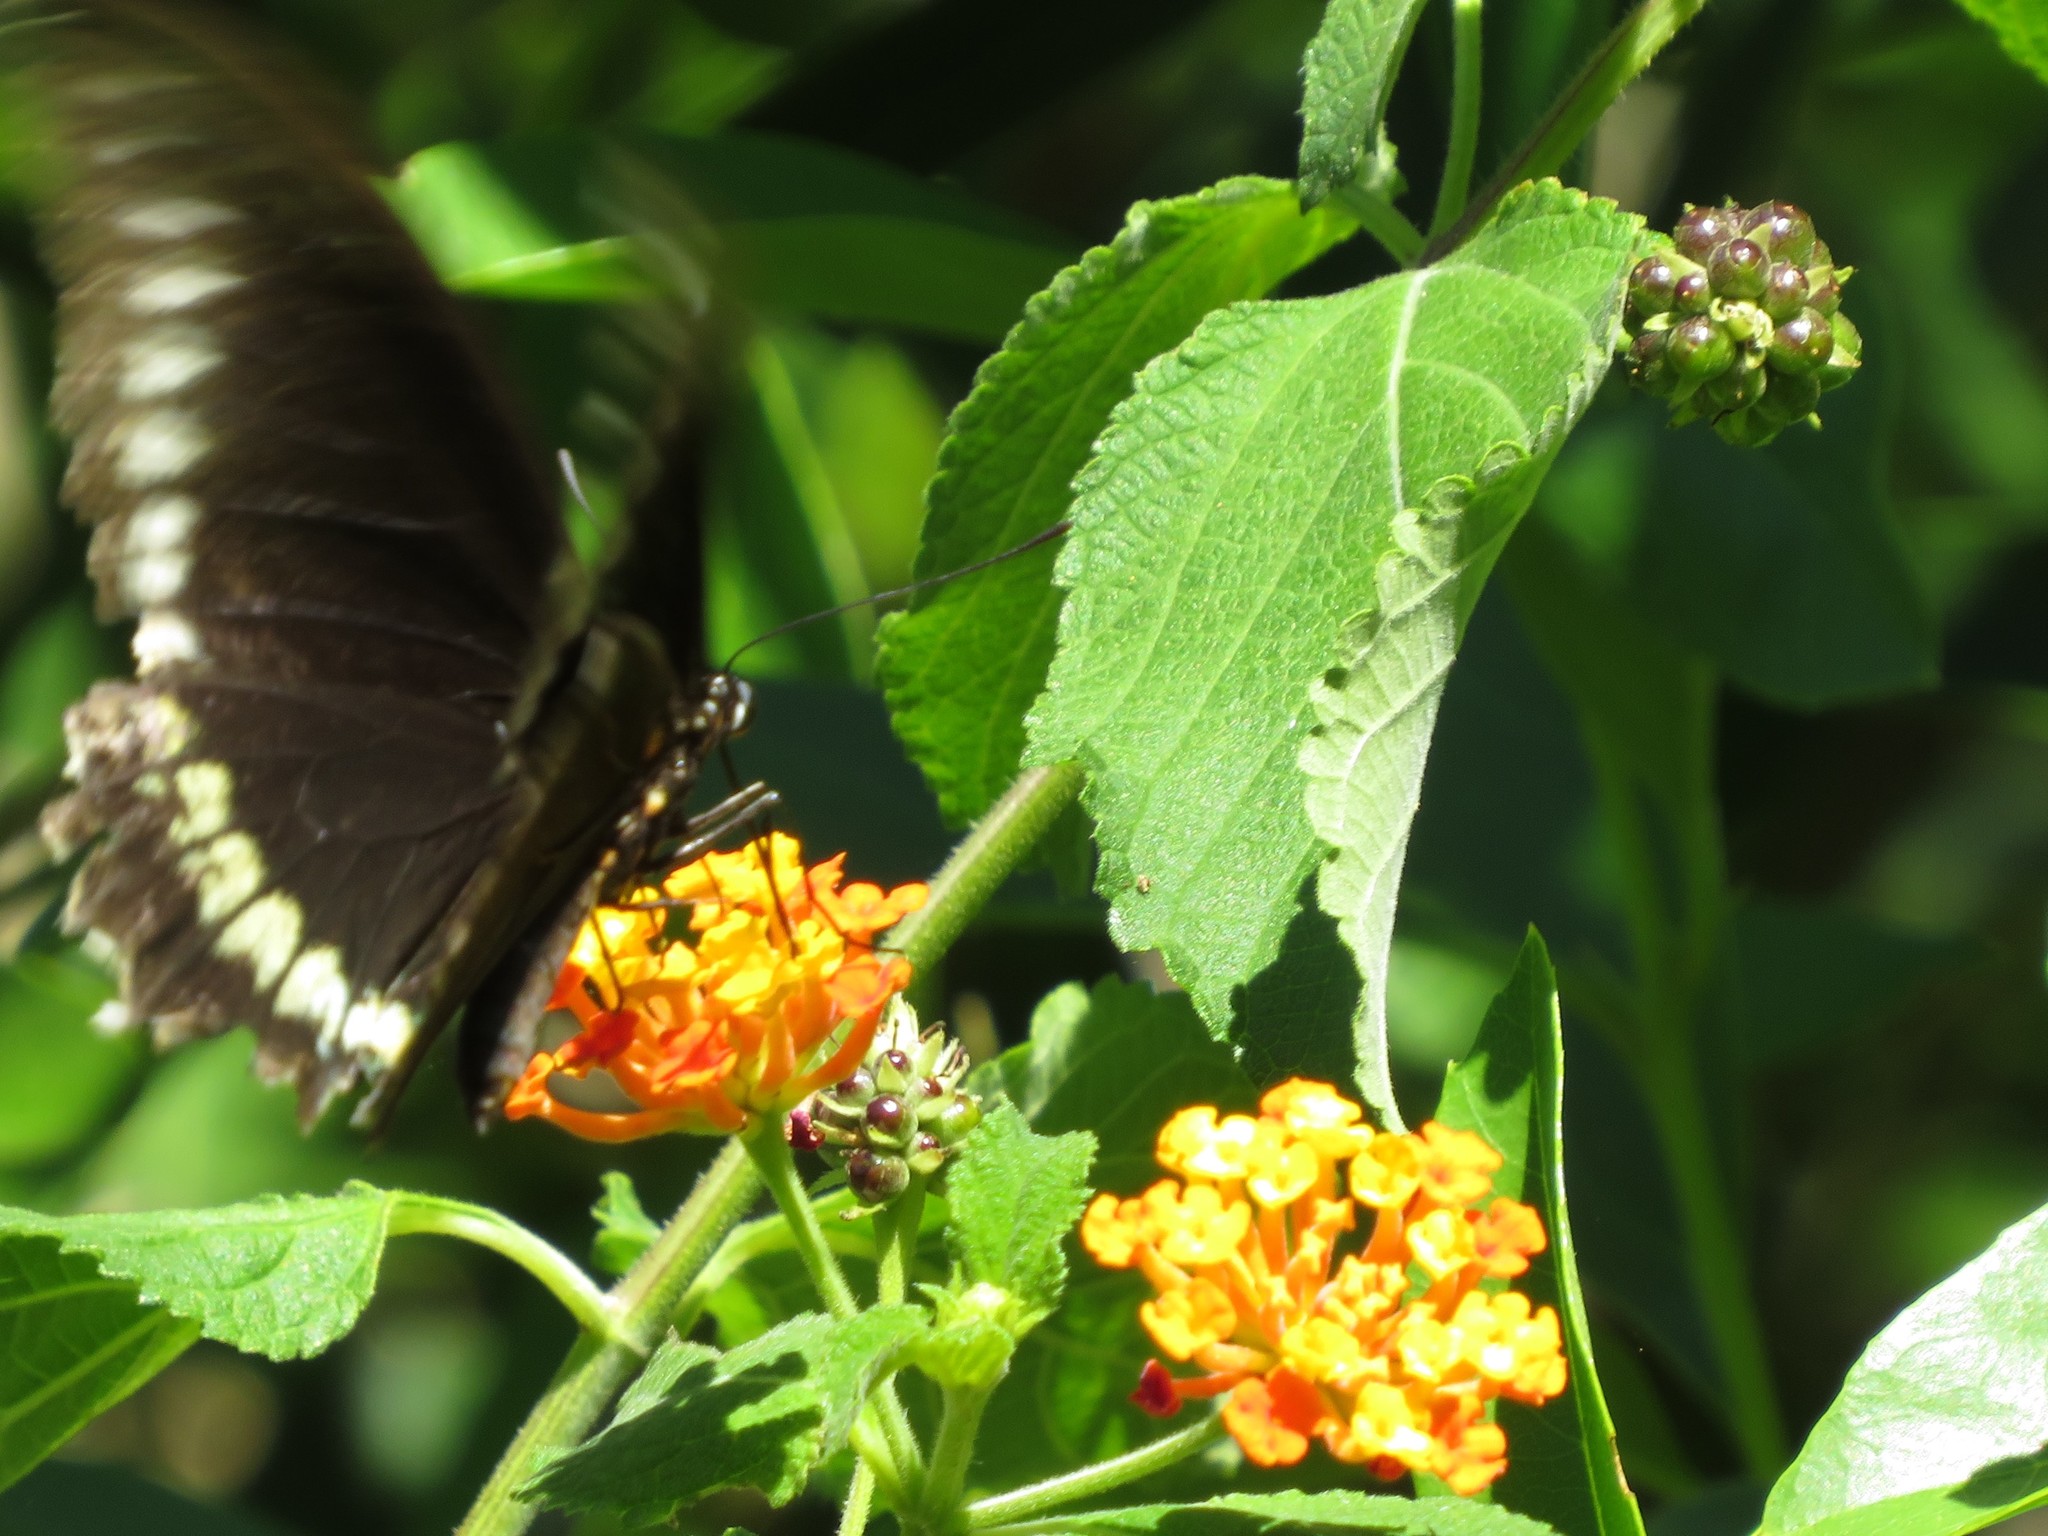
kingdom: Animalia
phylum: Arthropoda
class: Insecta
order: Lepidoptera
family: Papilionidae
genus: Battus
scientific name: Battus polydamas
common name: Polydamas swallowtail
